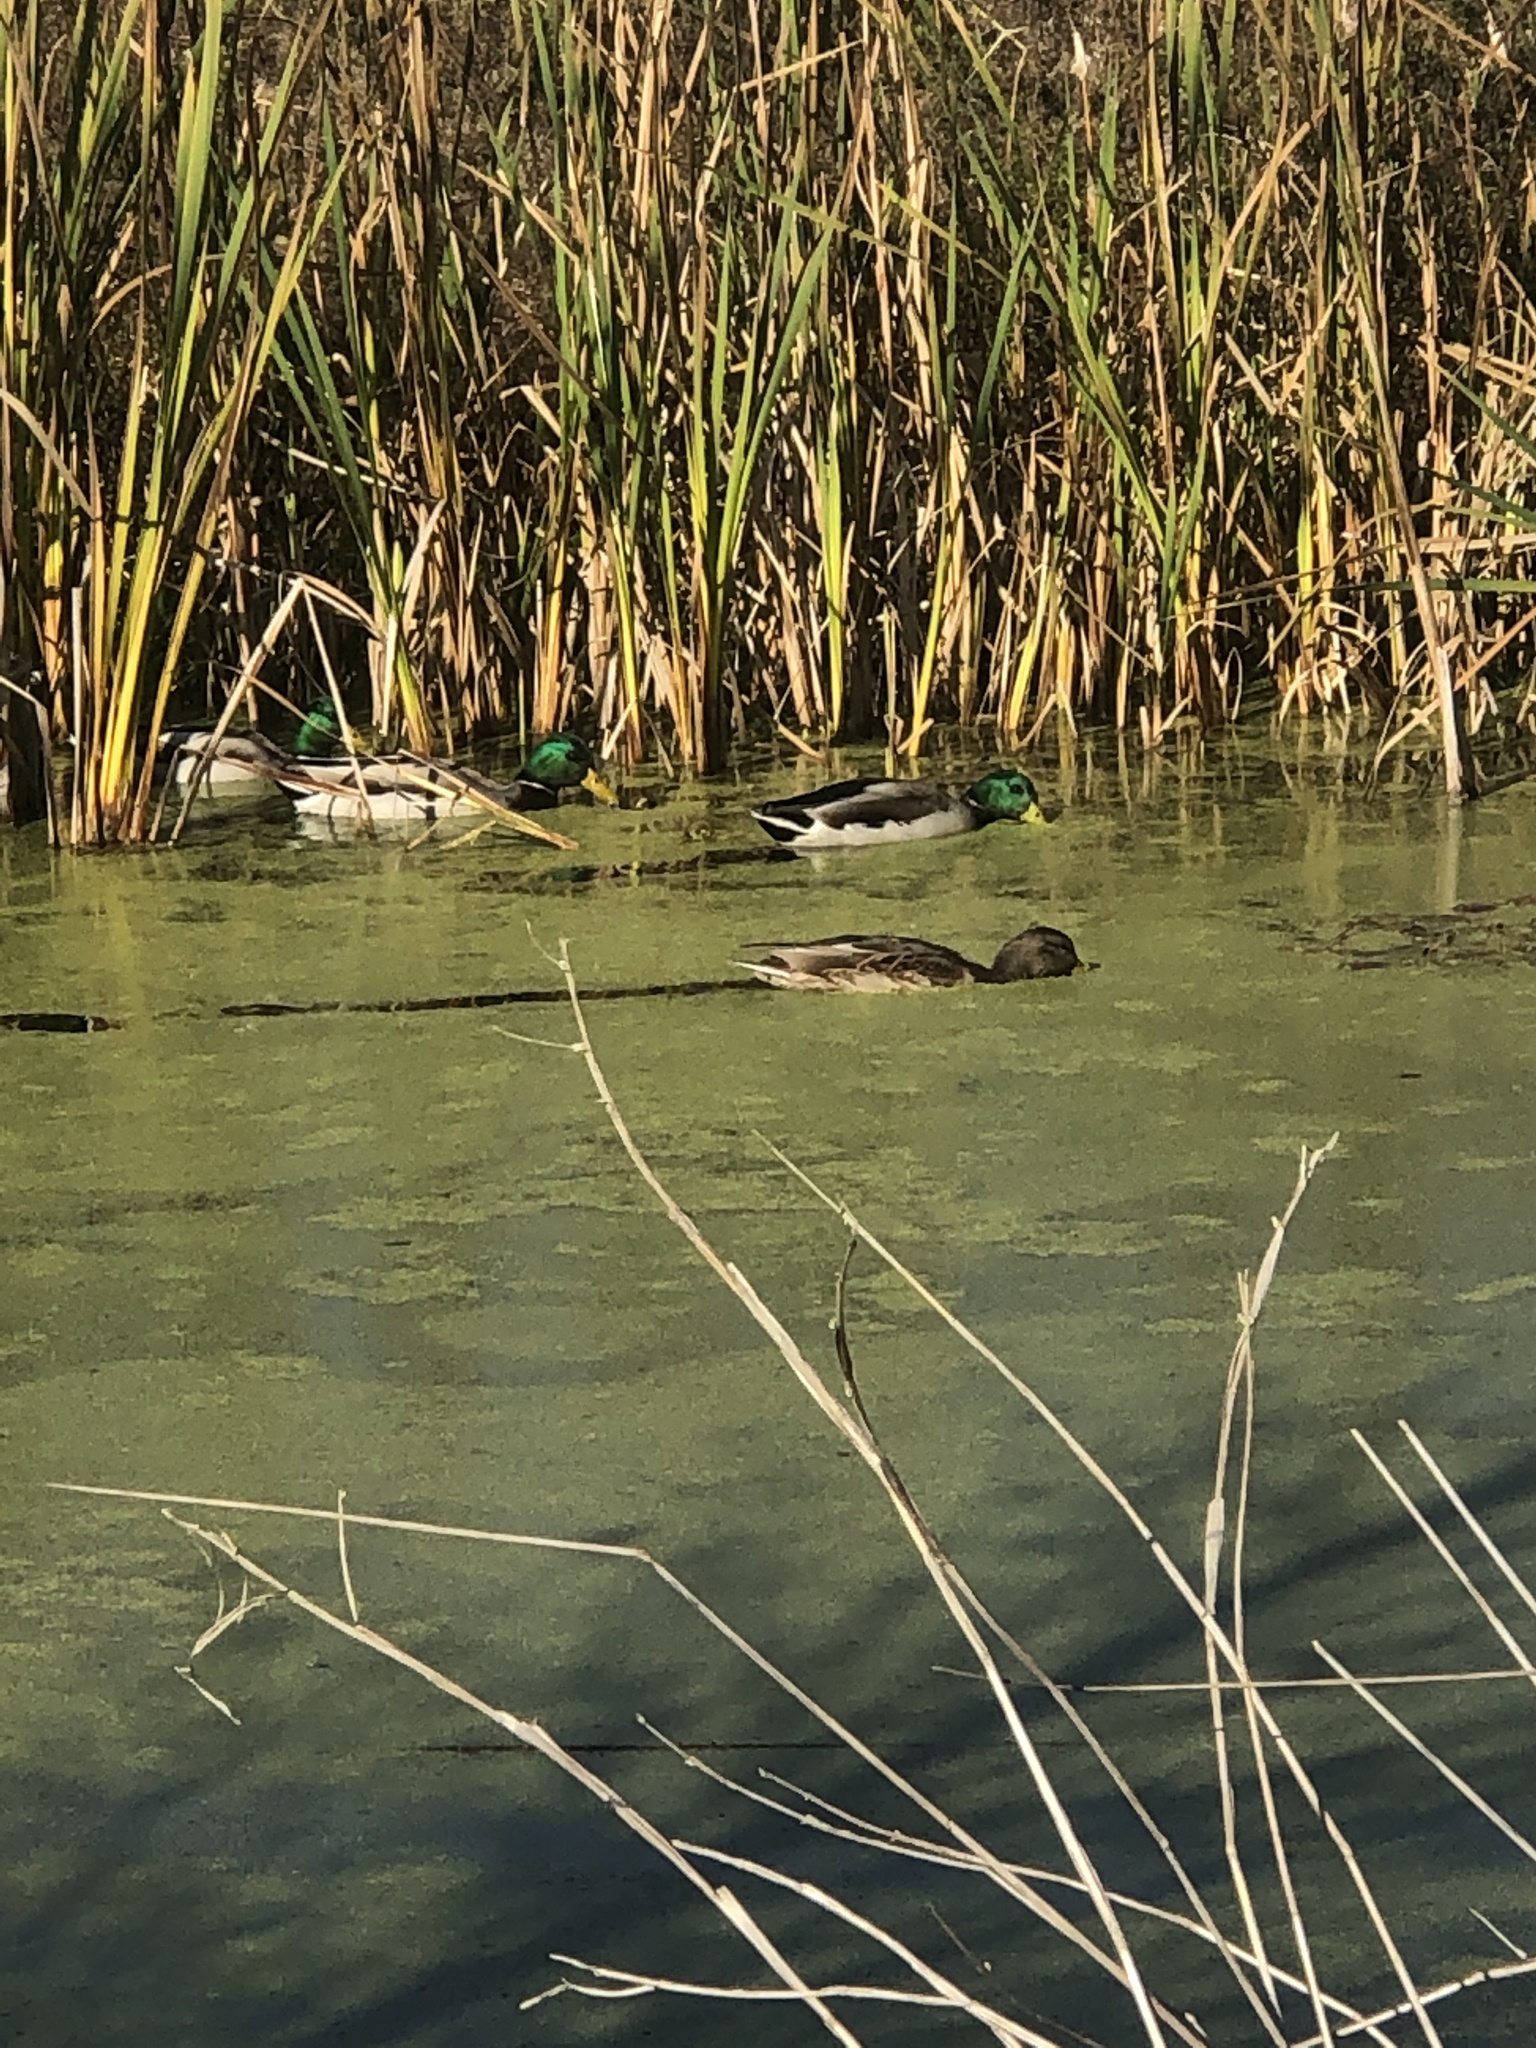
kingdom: Animalia
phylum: Chordata
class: Aves
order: Anseriformes
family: Anatidae
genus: Anas
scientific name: Anas platyrhynchos
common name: Mallard
